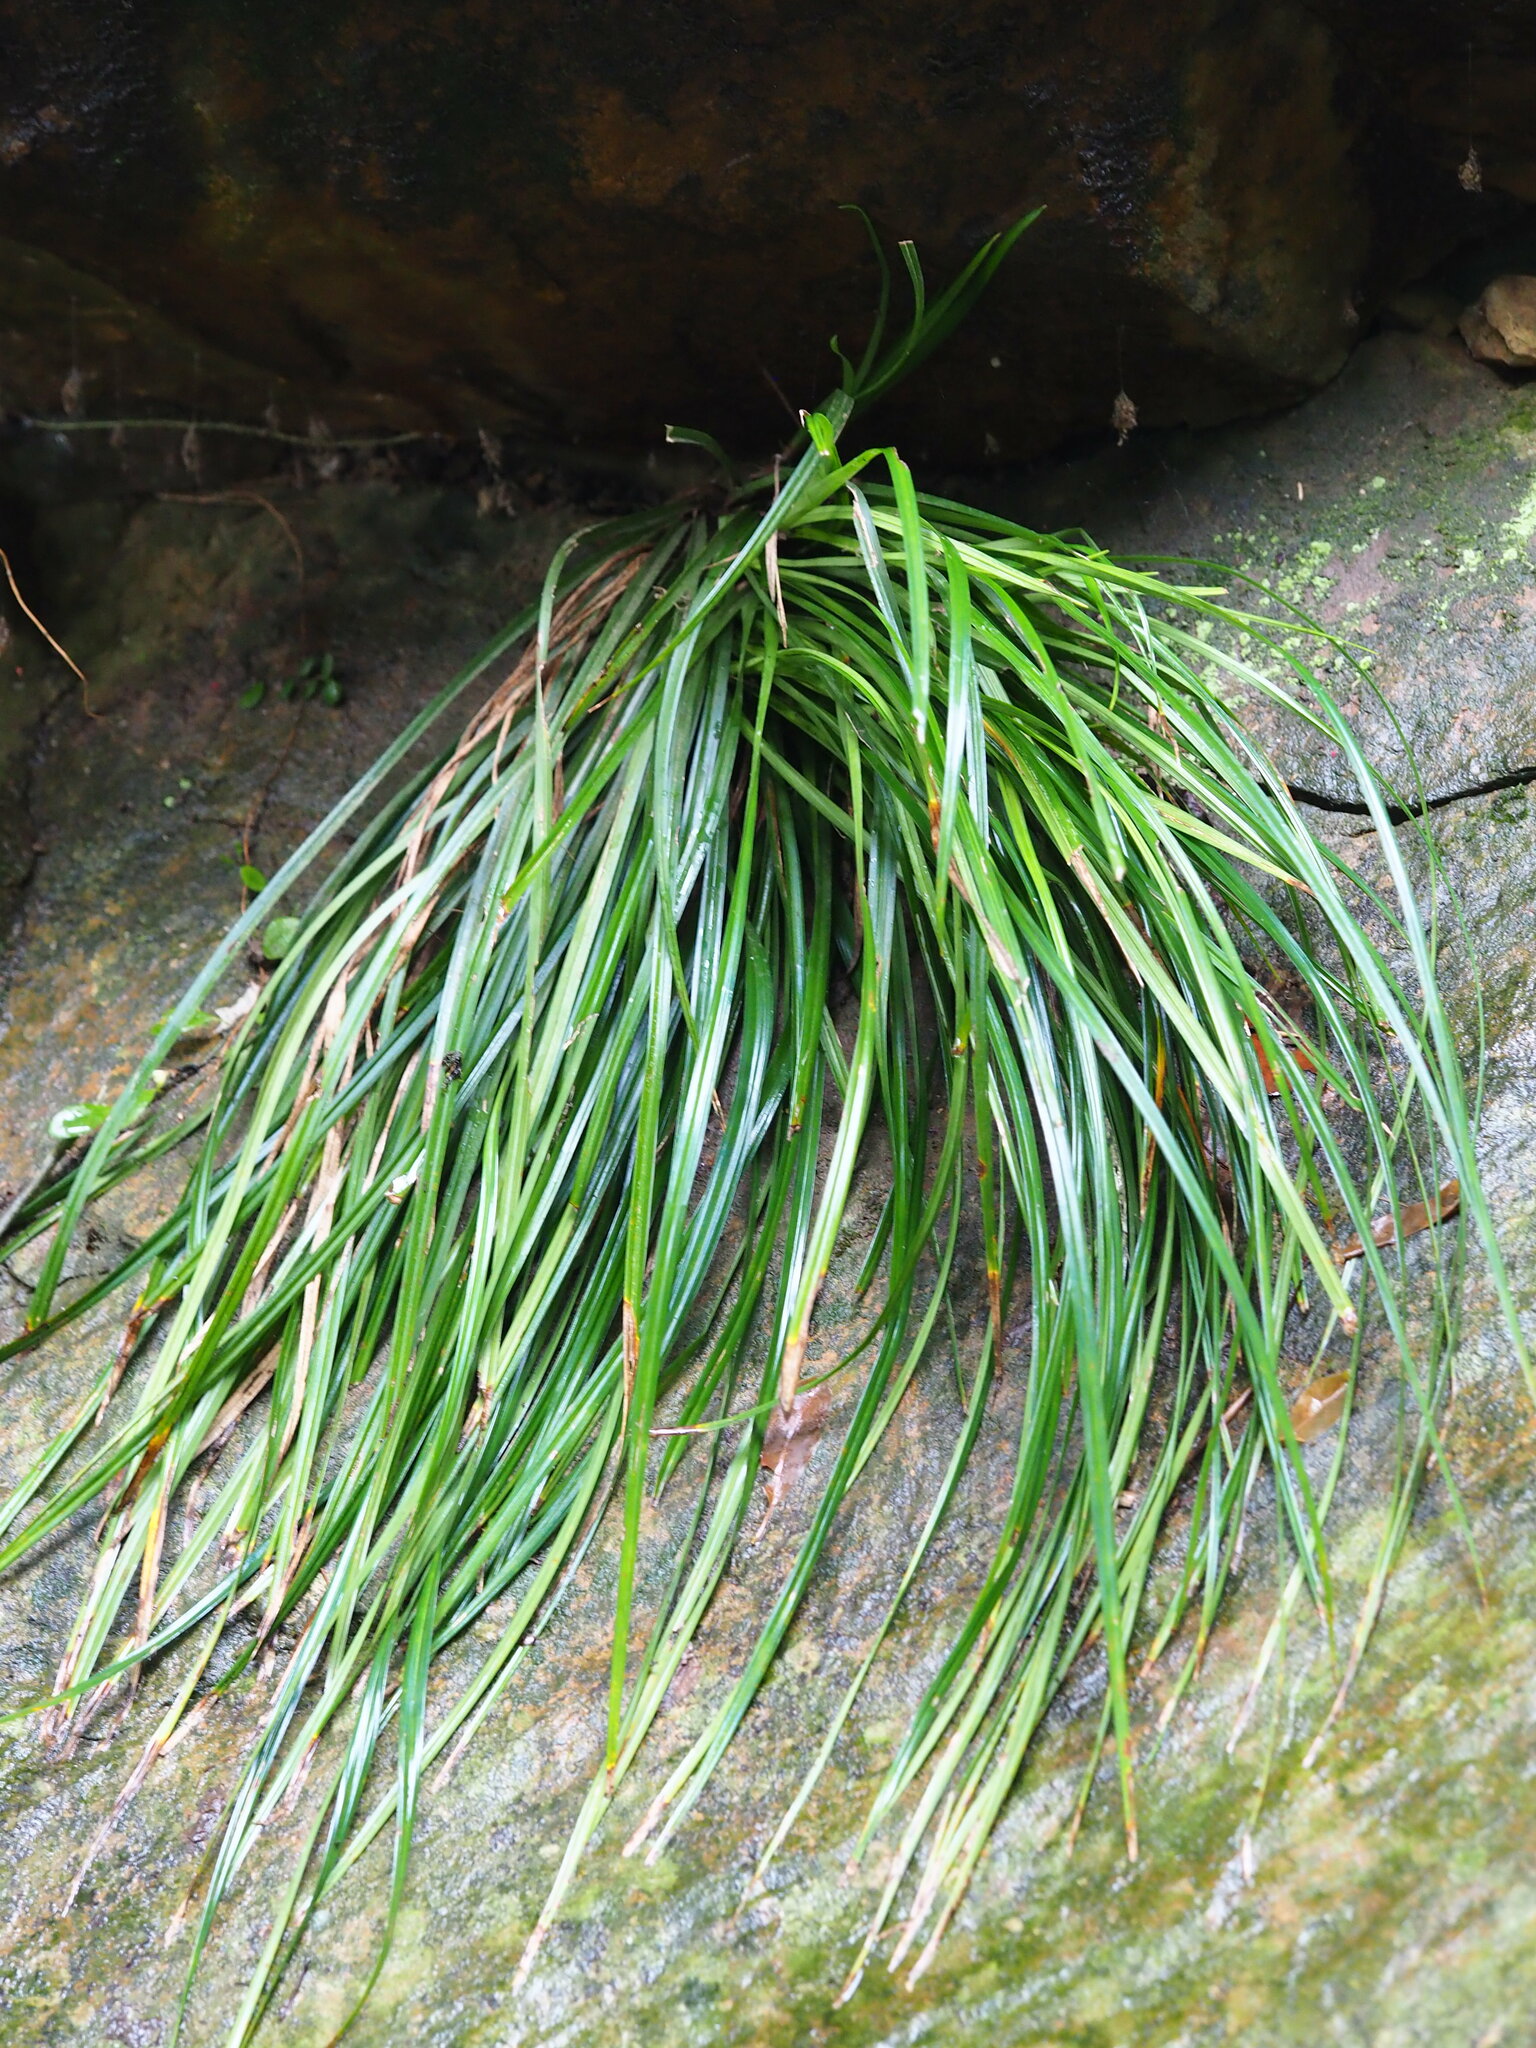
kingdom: Plantae
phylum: Tracheophyta
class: Liliopsida
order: Poales
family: Cyperaceae
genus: Carex
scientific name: Carex sociata
